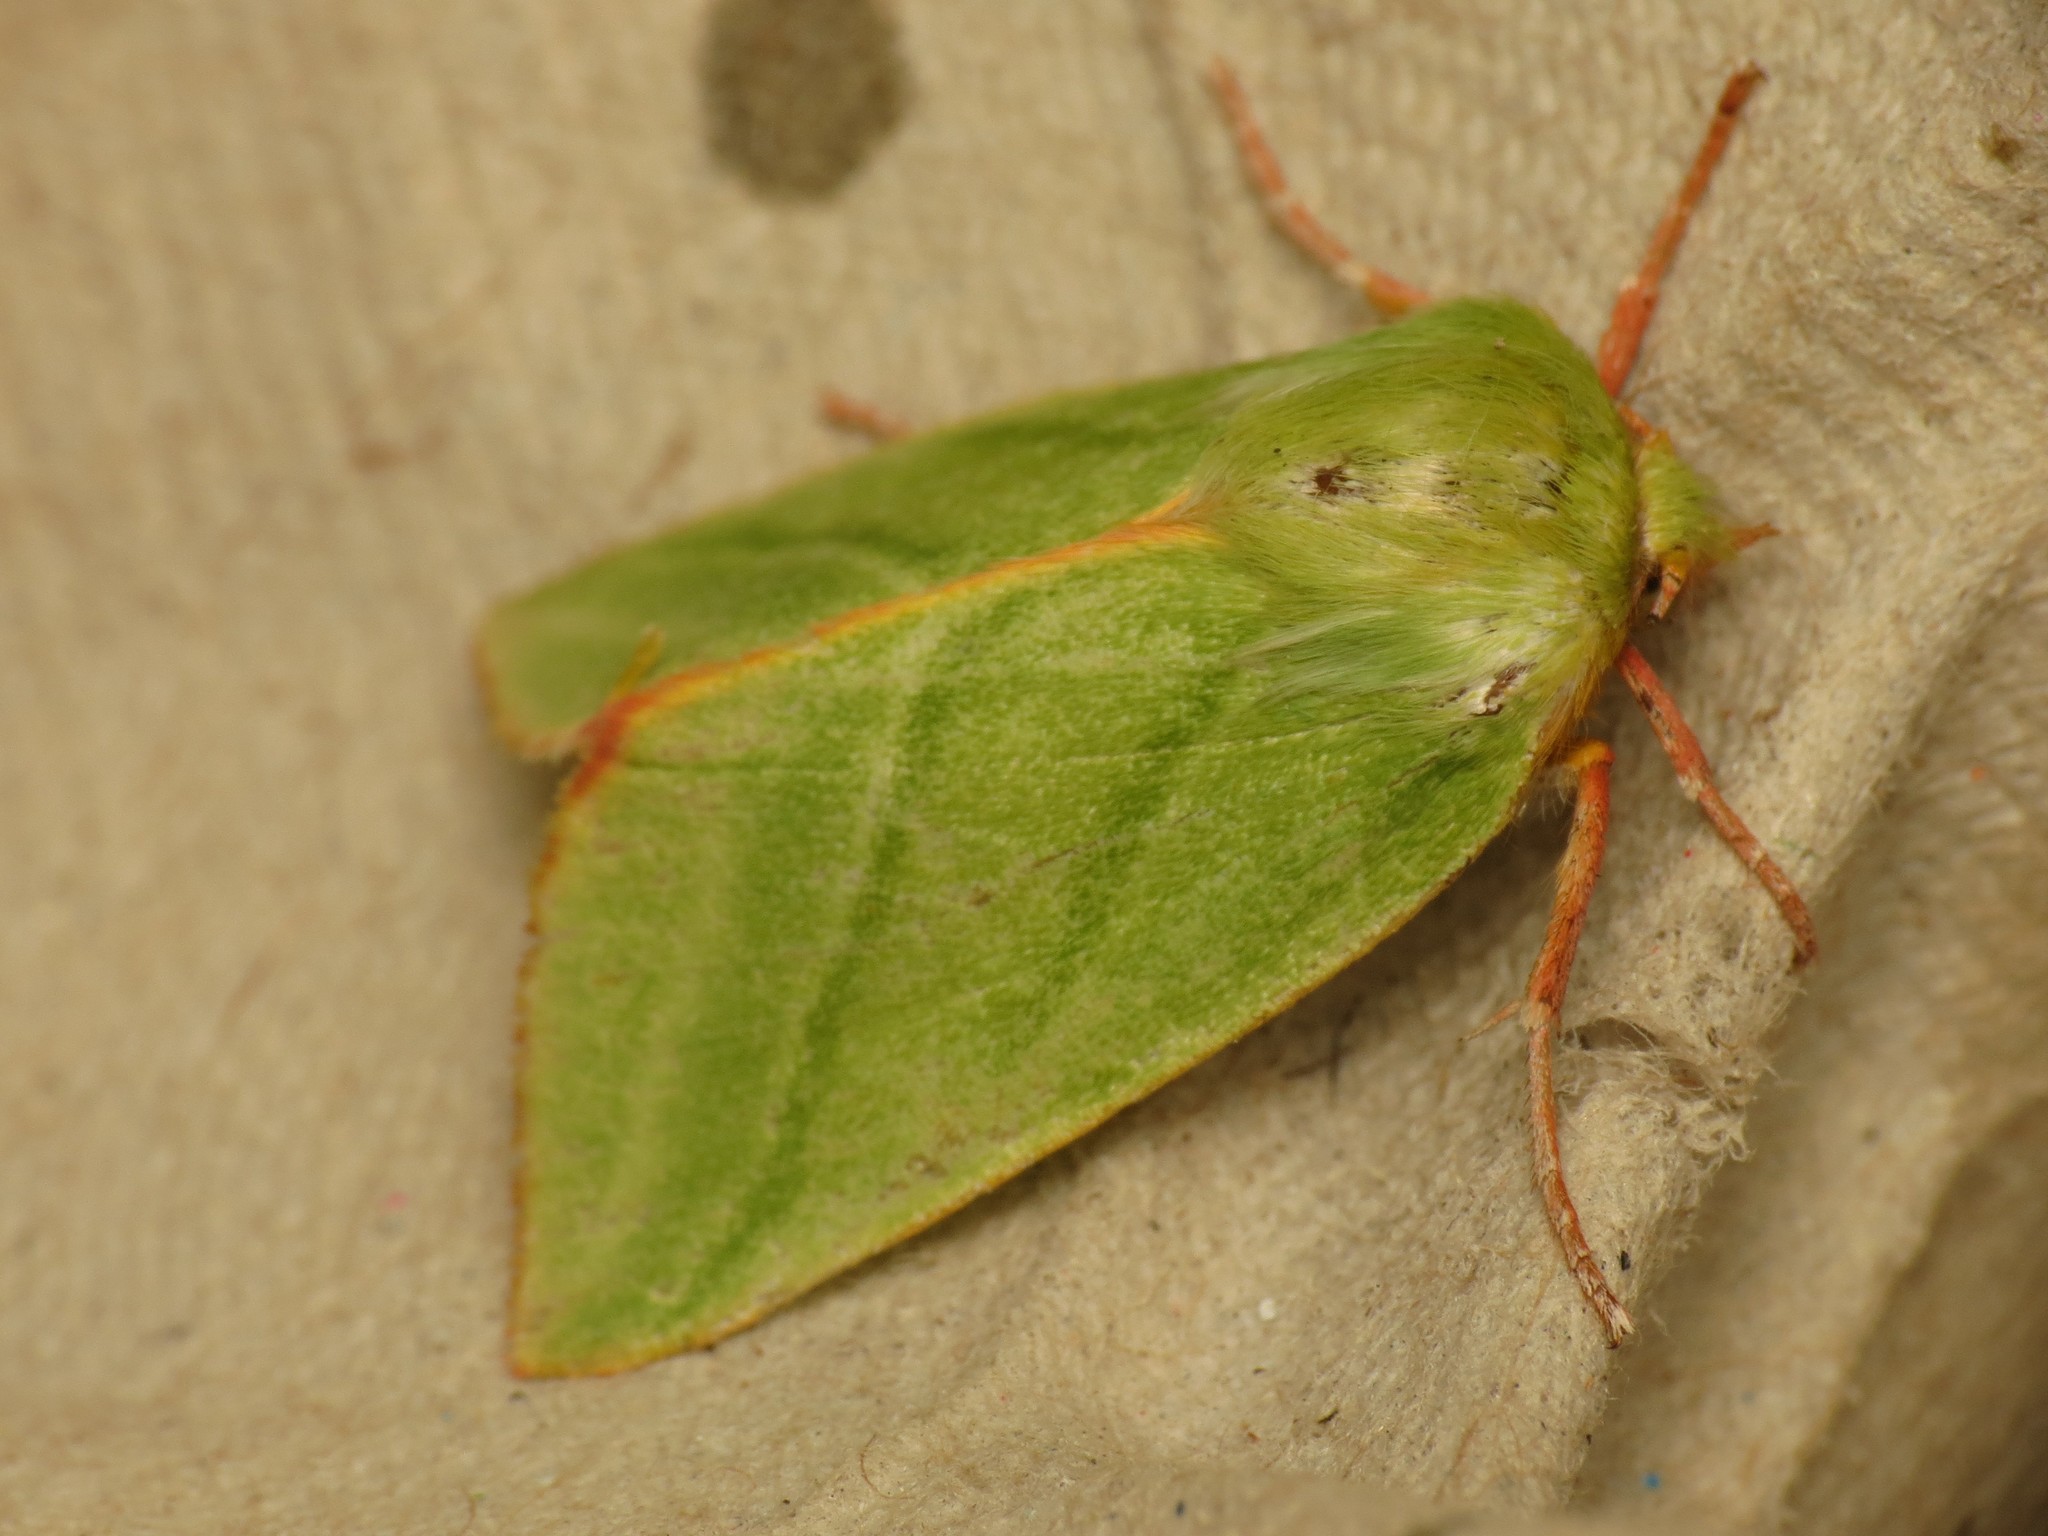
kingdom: Animalia
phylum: Arthropoda
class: Insecta
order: Lepidoptera
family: Nolidae
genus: Pseudoips
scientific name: Pseudoips prasinana
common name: Green silver-lines
